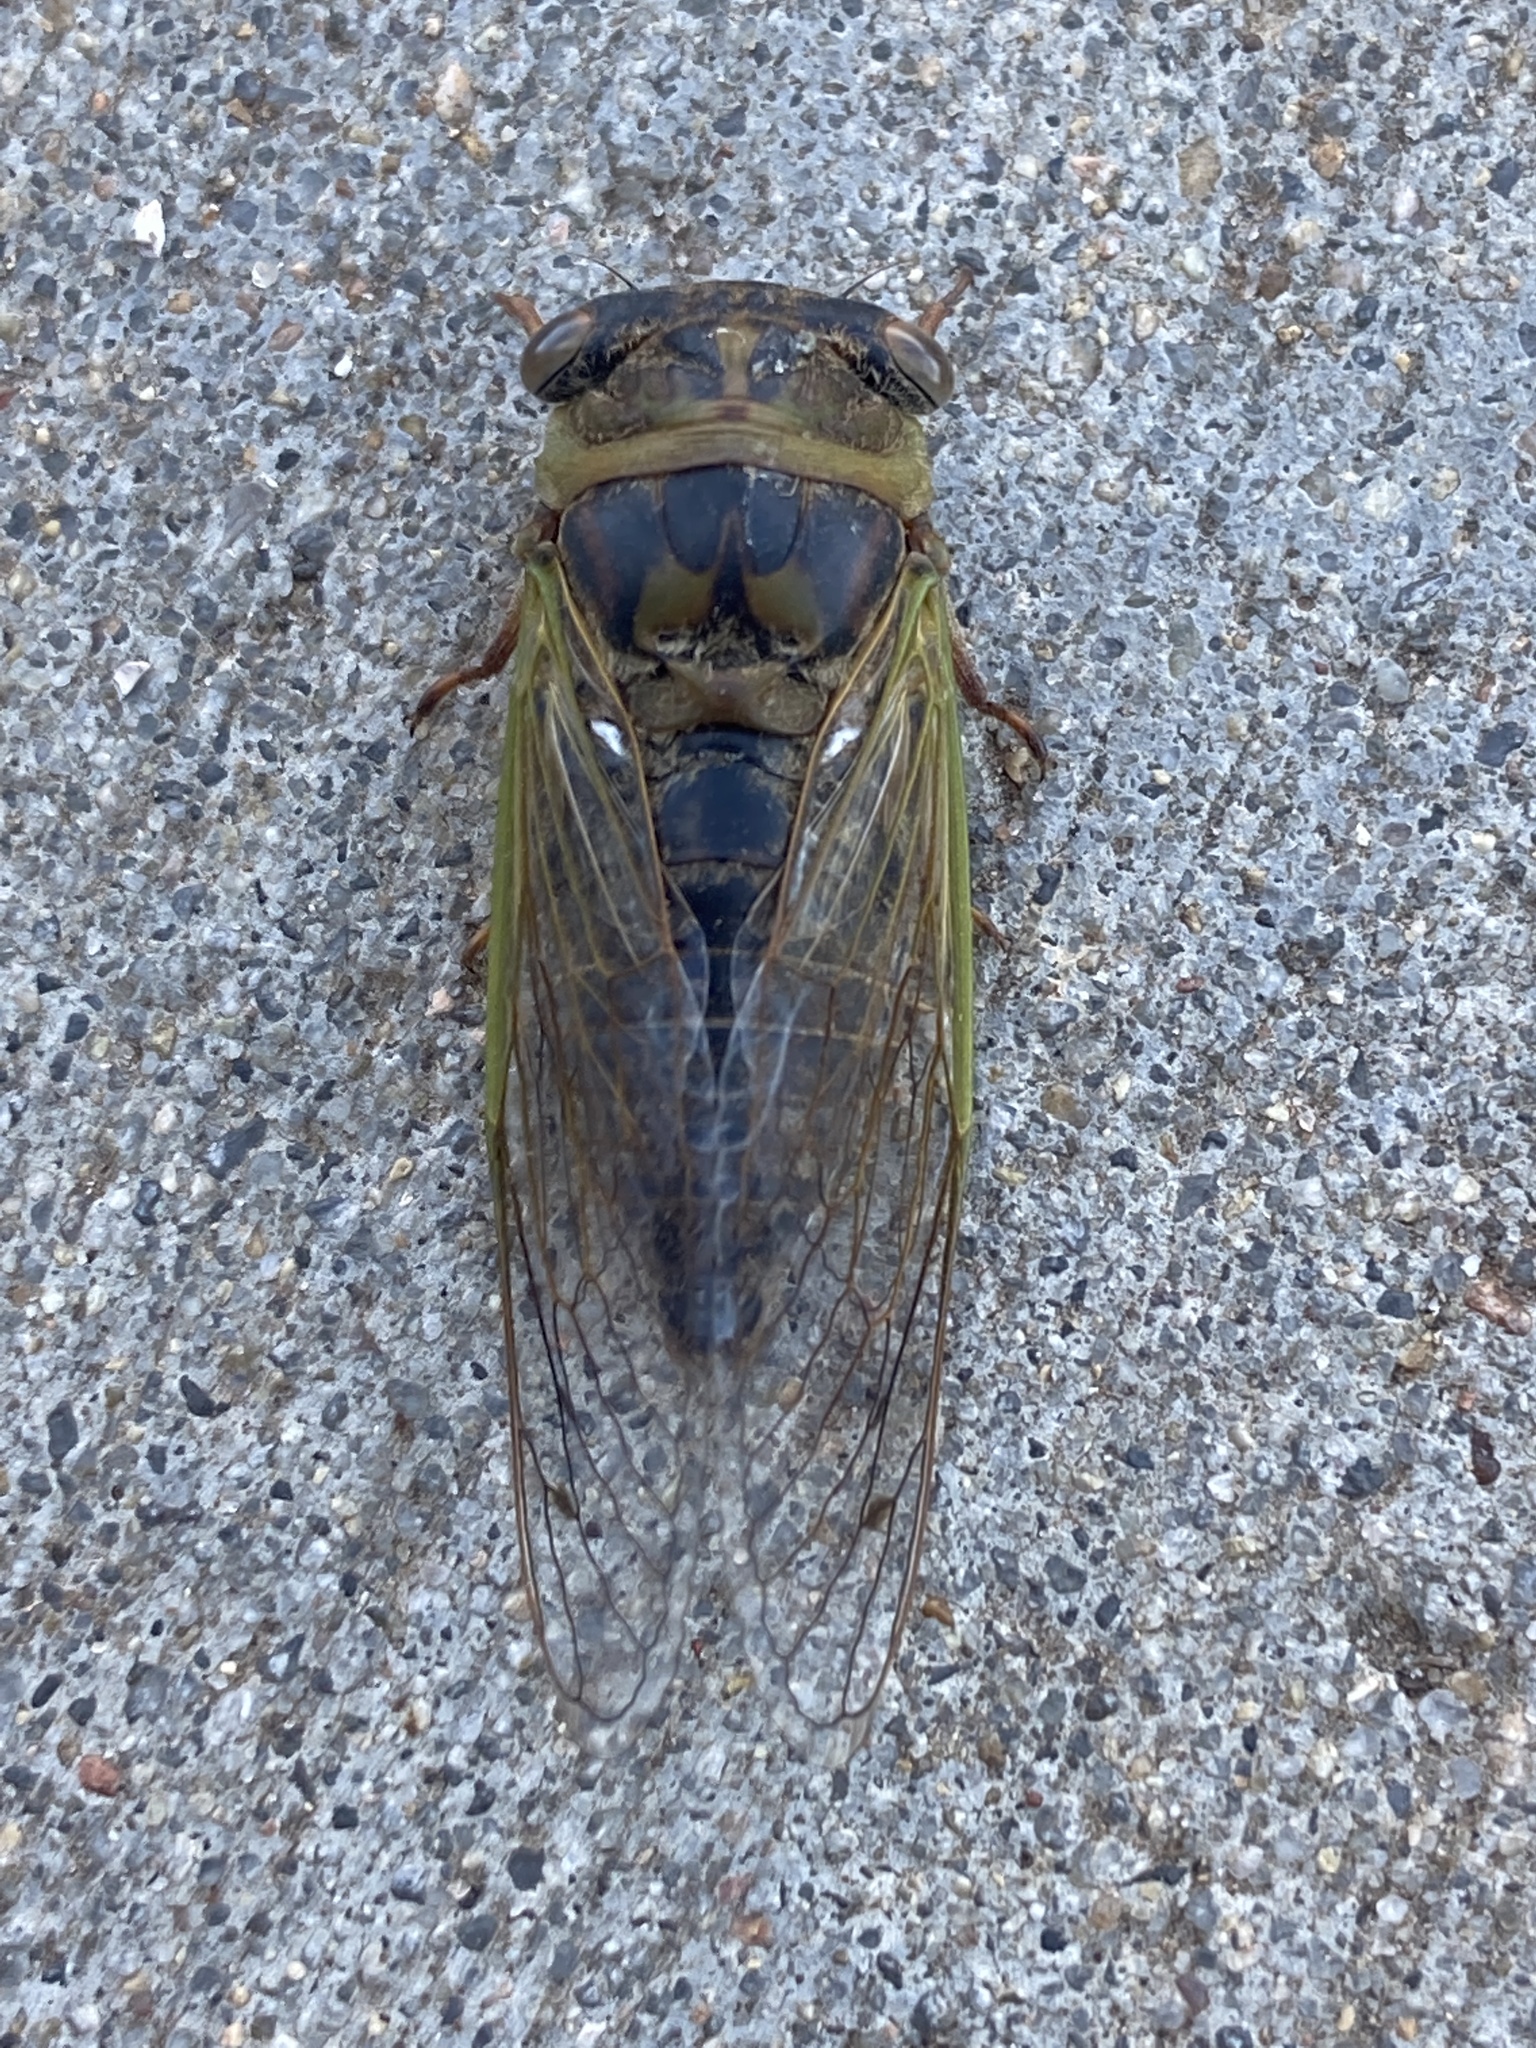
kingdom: Animalia
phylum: Arthropoda
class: Insecta
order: Hemiptera
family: Cicadidae
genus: Neotibicen
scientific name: Neotibicen aurifer
